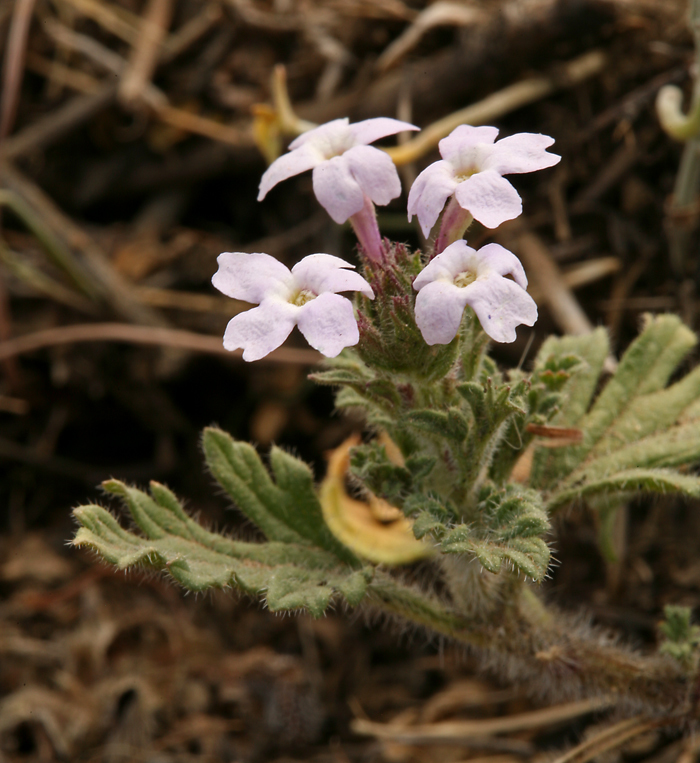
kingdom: Plantae
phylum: Tracheophyta
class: Magnoliopsida
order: Lamiales
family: Verbenaceae
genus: Verbena
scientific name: Verbena gooddingii
